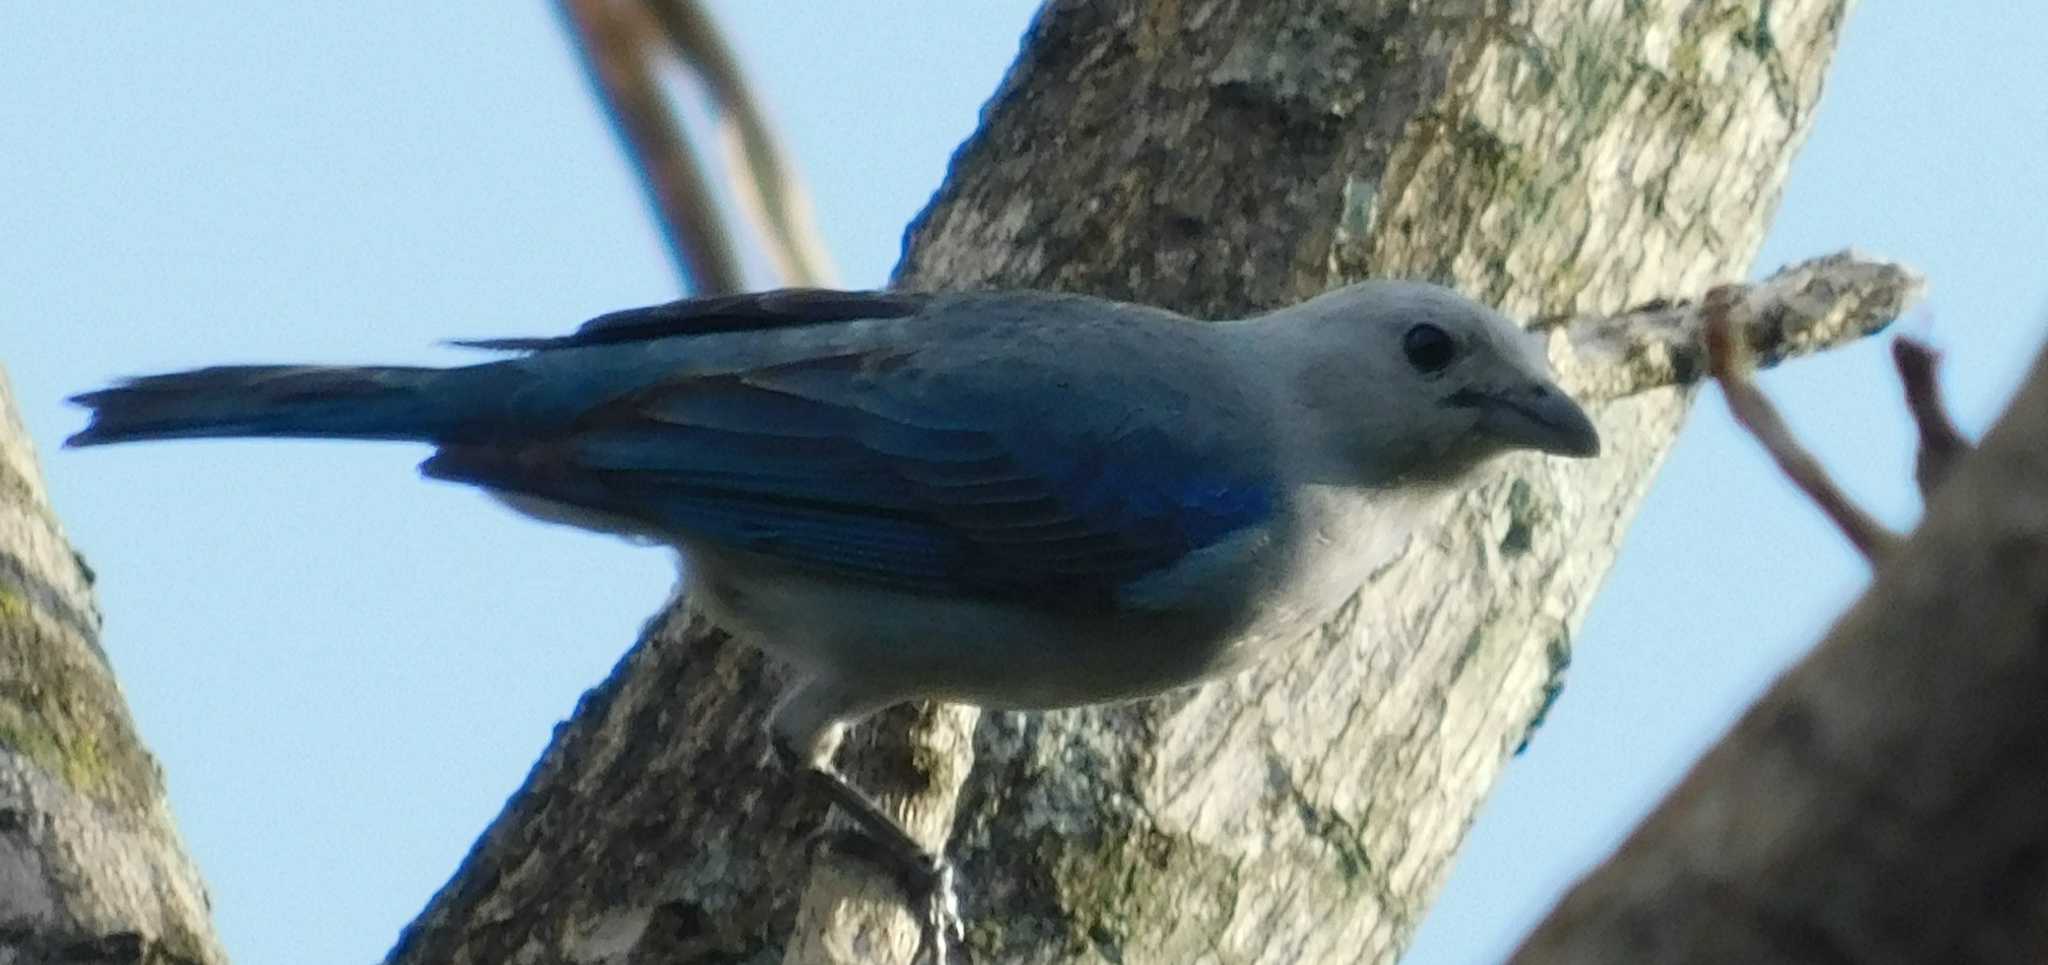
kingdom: Animalia
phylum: Chordata
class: Aves
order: Passeriformes
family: Thraupidae
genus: Thraupis
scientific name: Thraupis episcopus
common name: Blue-grey tanager
